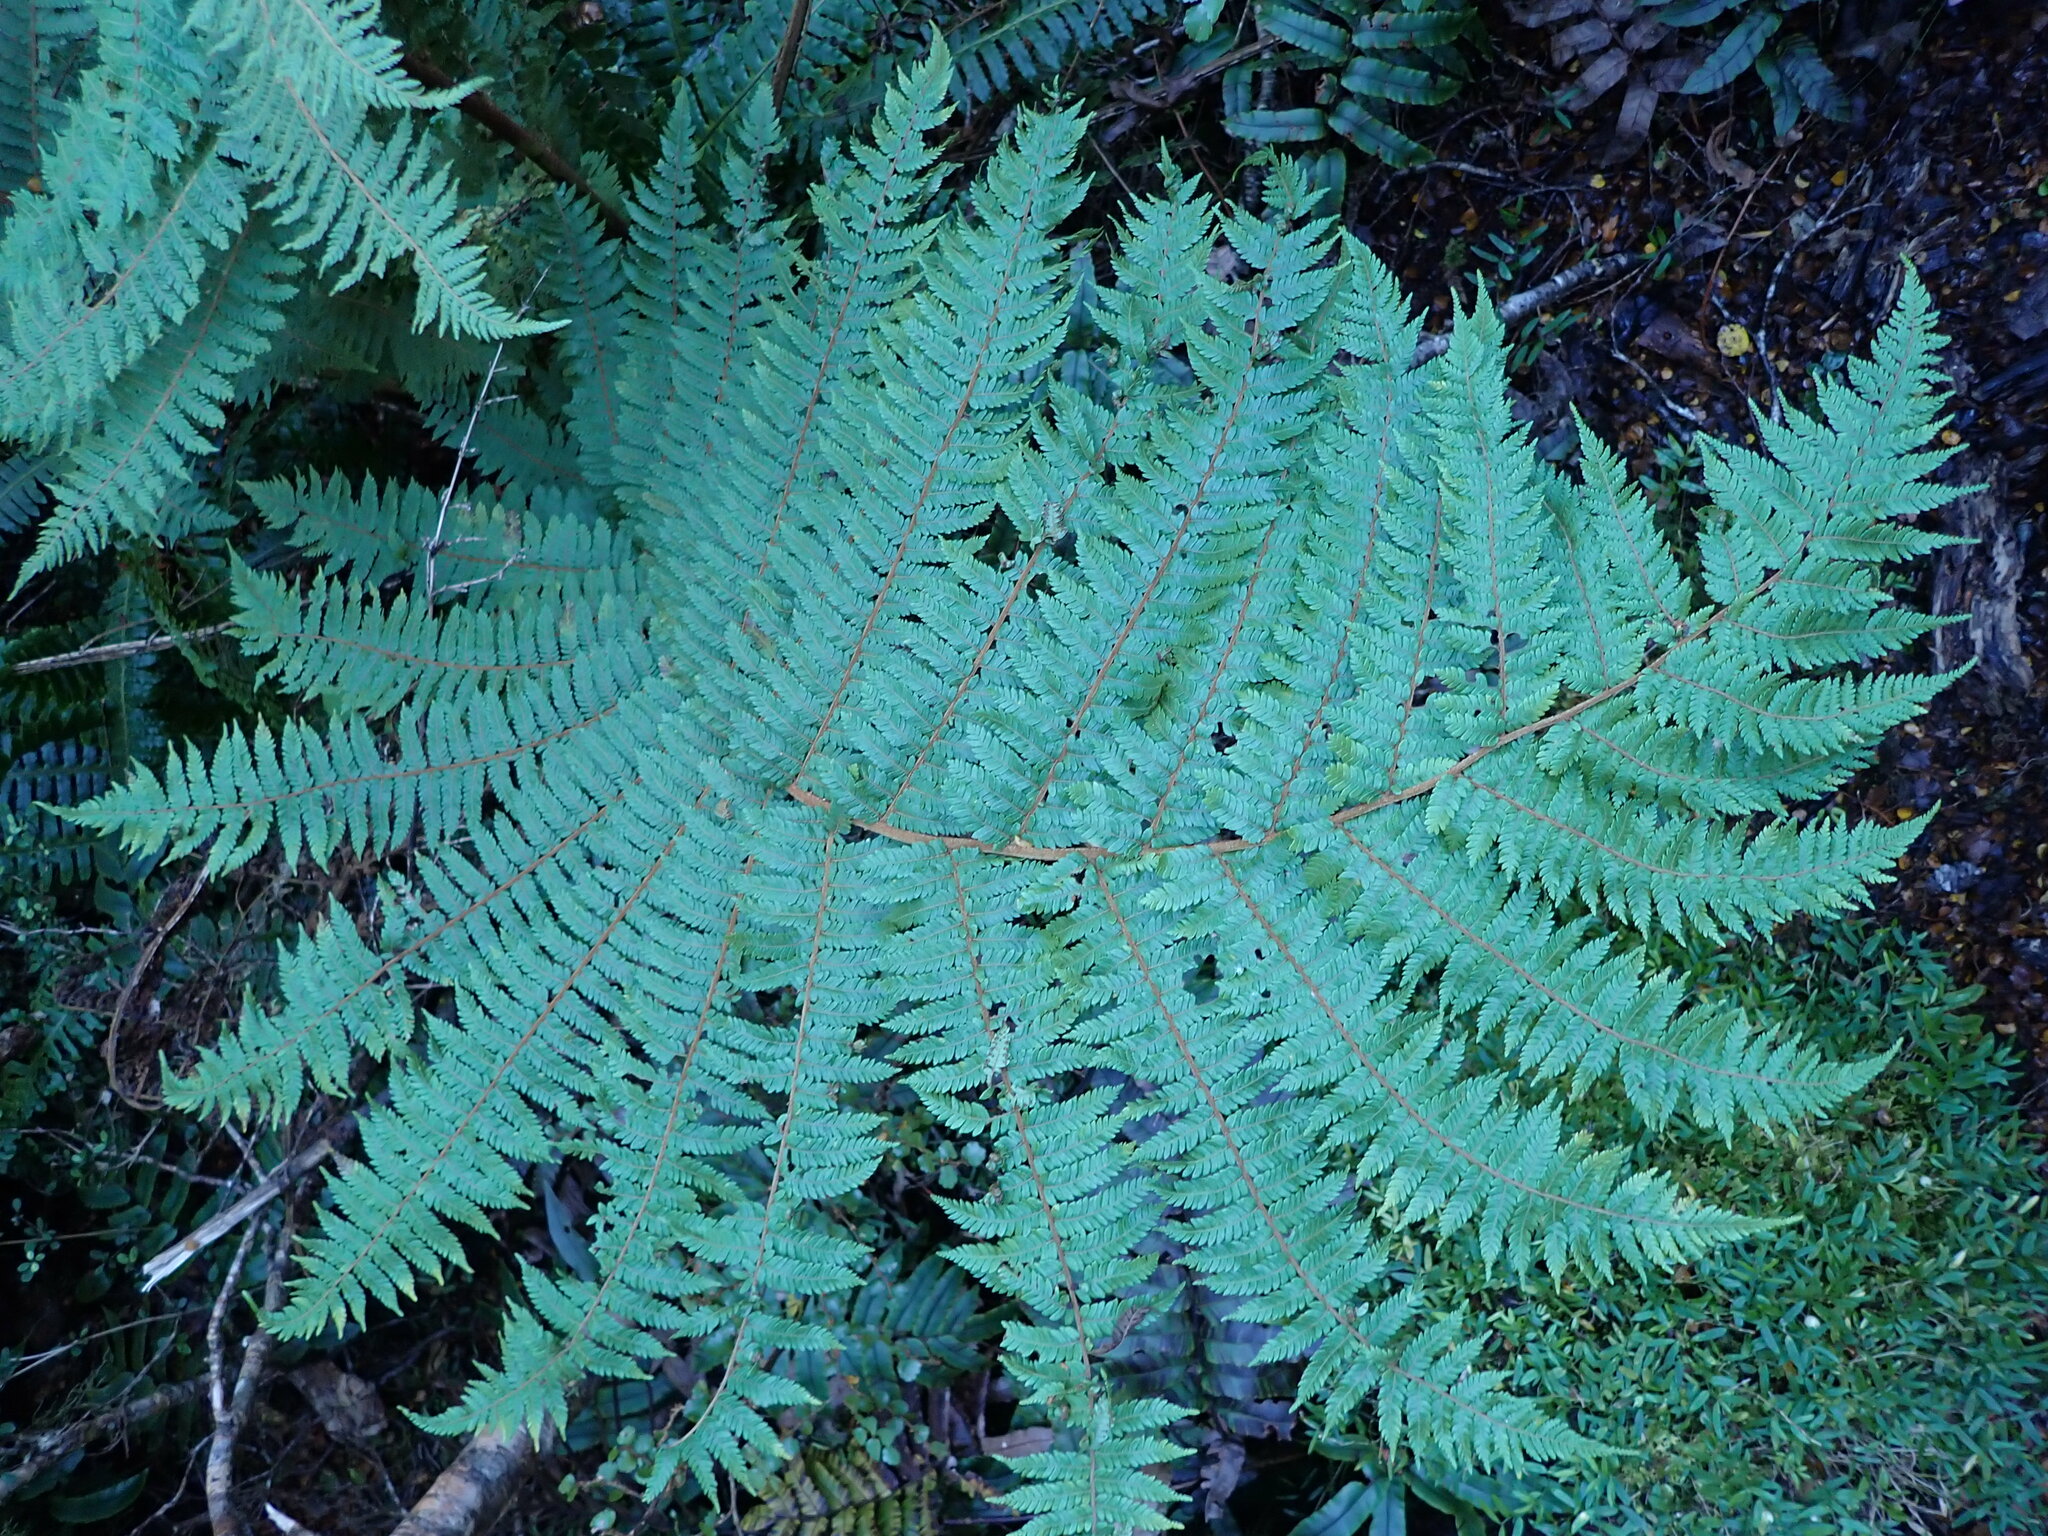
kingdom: Plantae
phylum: Tracheophyta
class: Polypodiopsida
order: Cyatheales
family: Cyatheaceae
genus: Alsophila
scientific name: Alsophila colensoi
